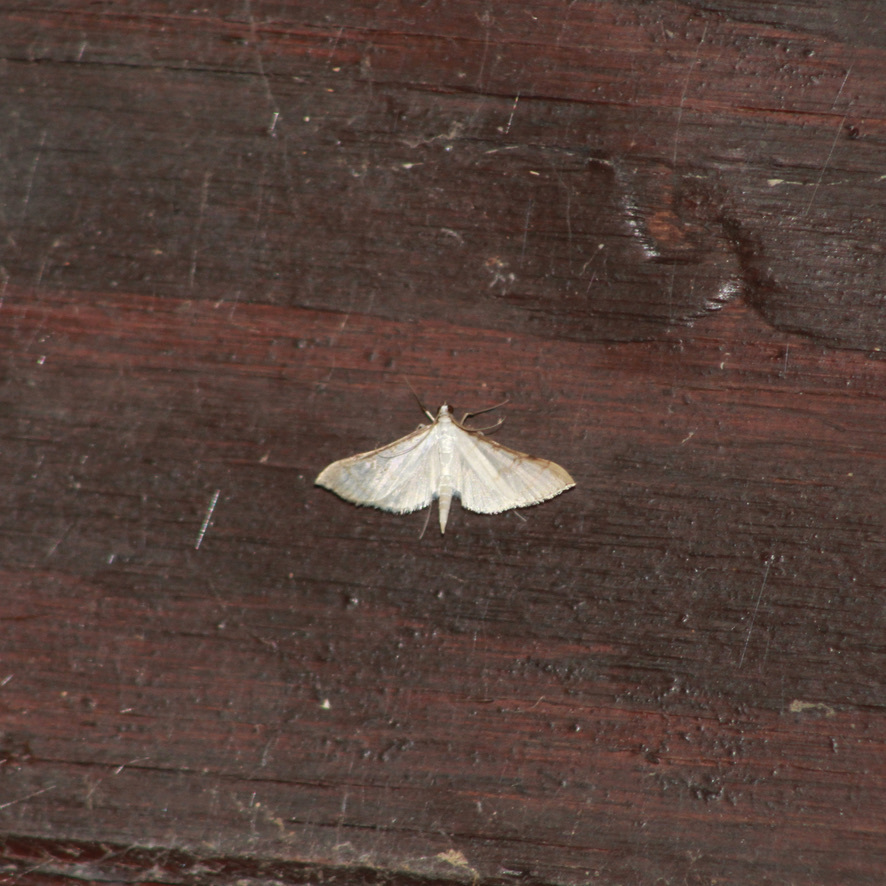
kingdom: Animalia
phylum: Arthropoda
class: Insecta
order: Lepidoptera
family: Crambidae
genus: Stenia
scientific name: Stenia colubralis
